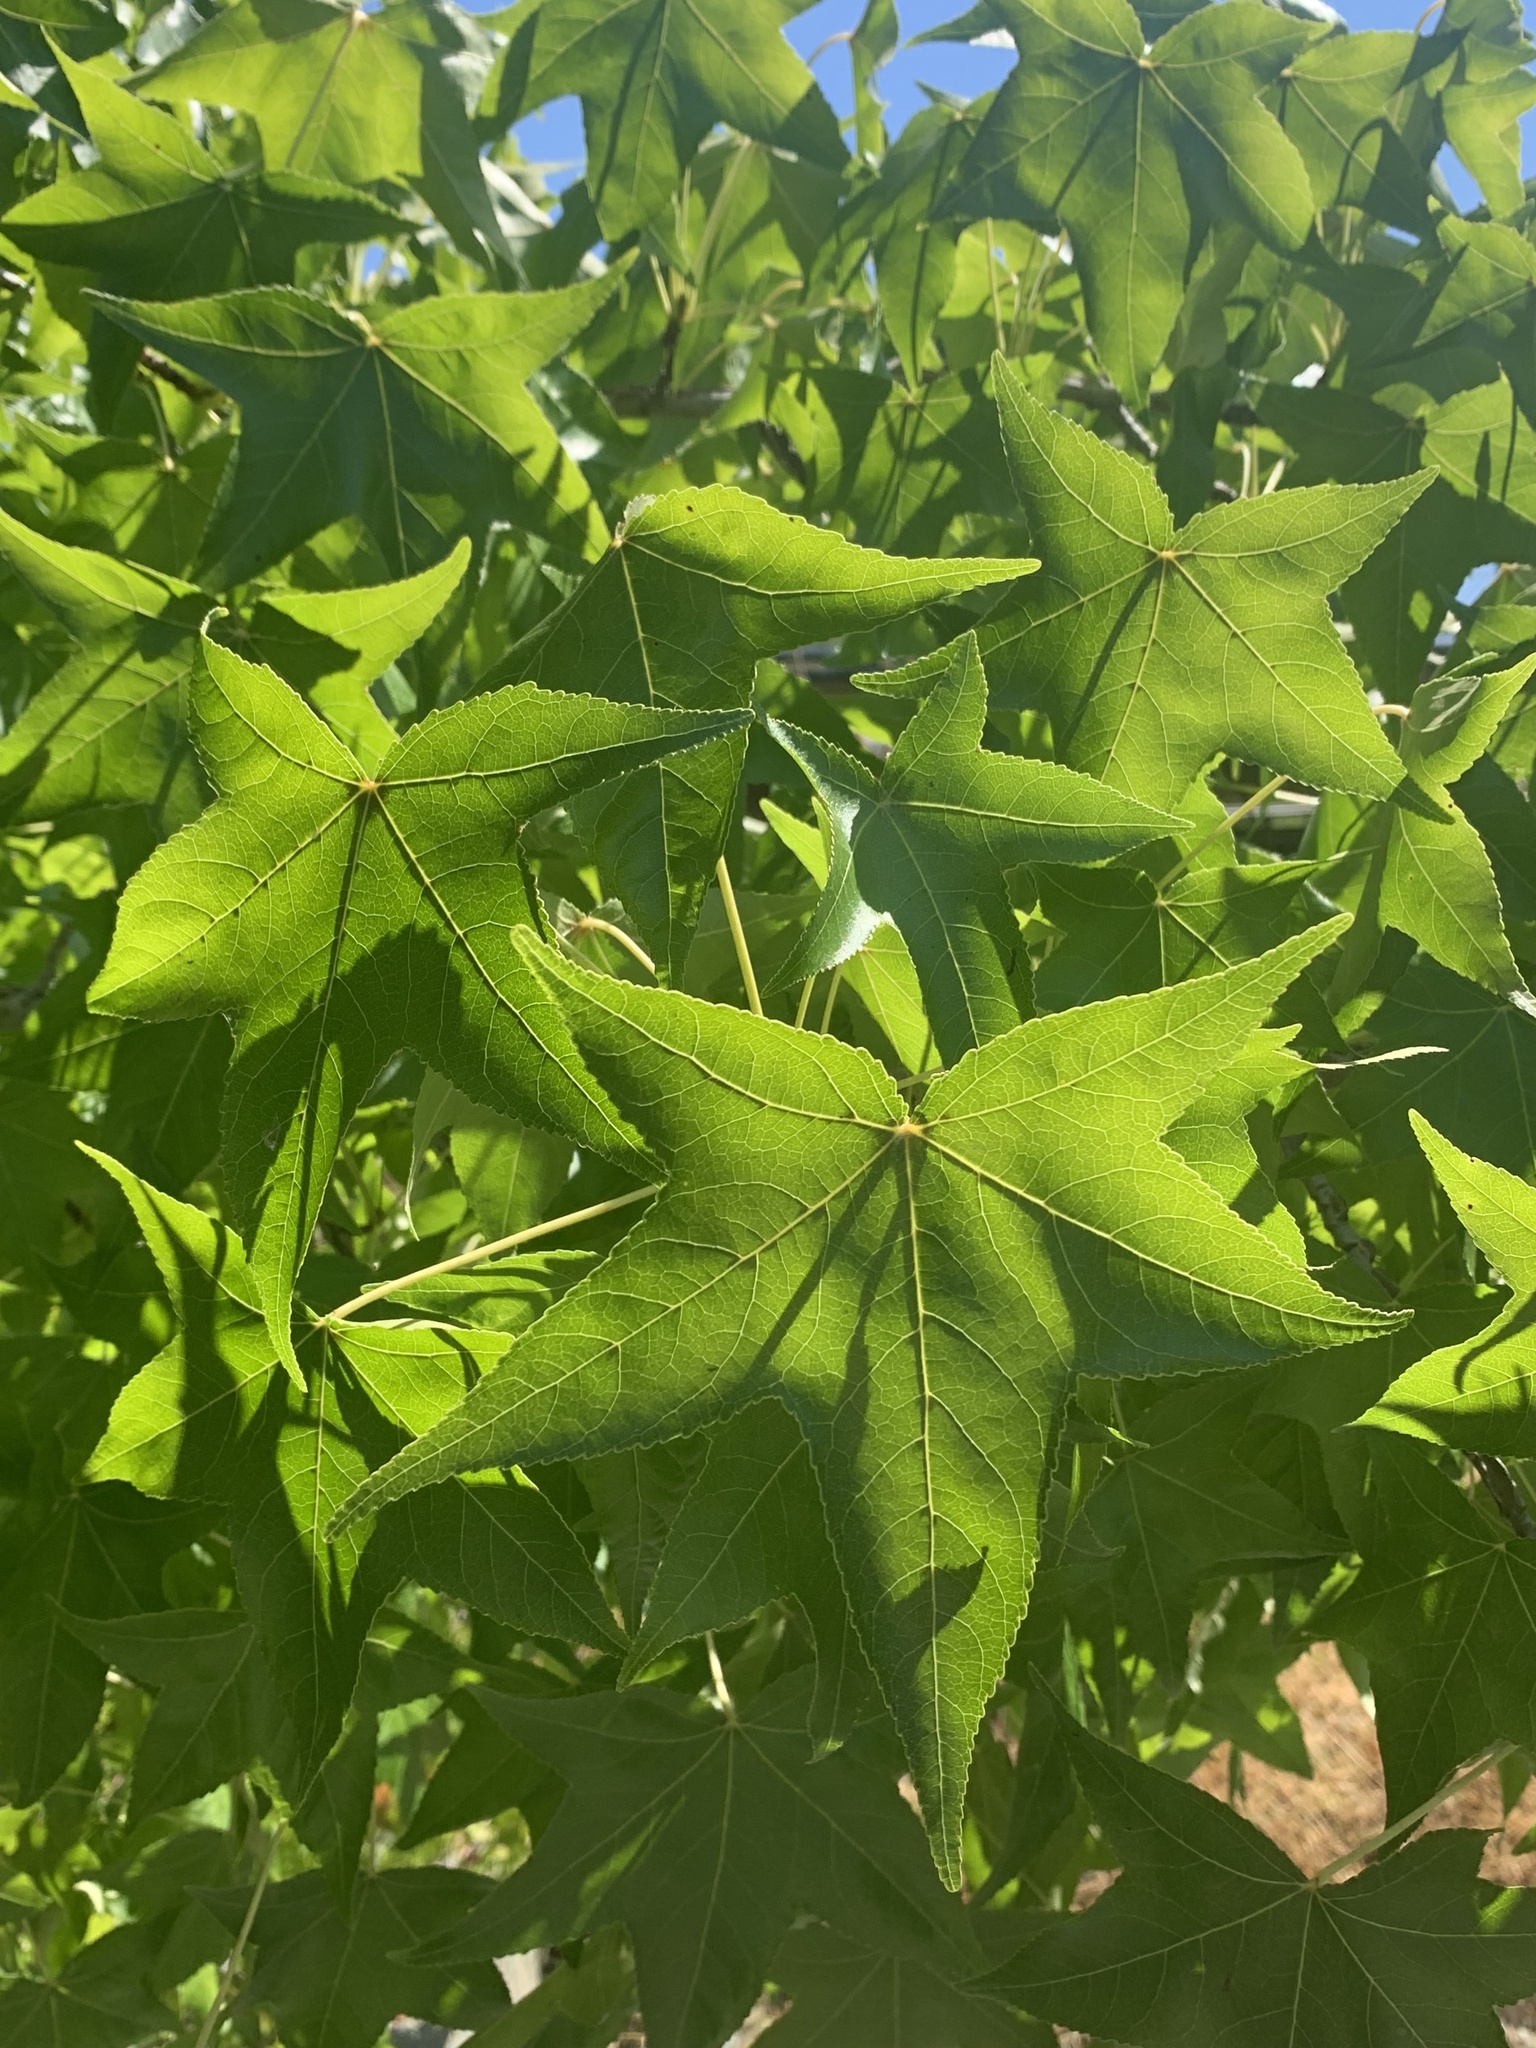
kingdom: Plantae
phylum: Tracheophyta
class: Magnoliopsida
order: Saxifragales
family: Altingiaceae
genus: Liquidambar
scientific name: Liquidambar styraciflua
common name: Sweet gum
